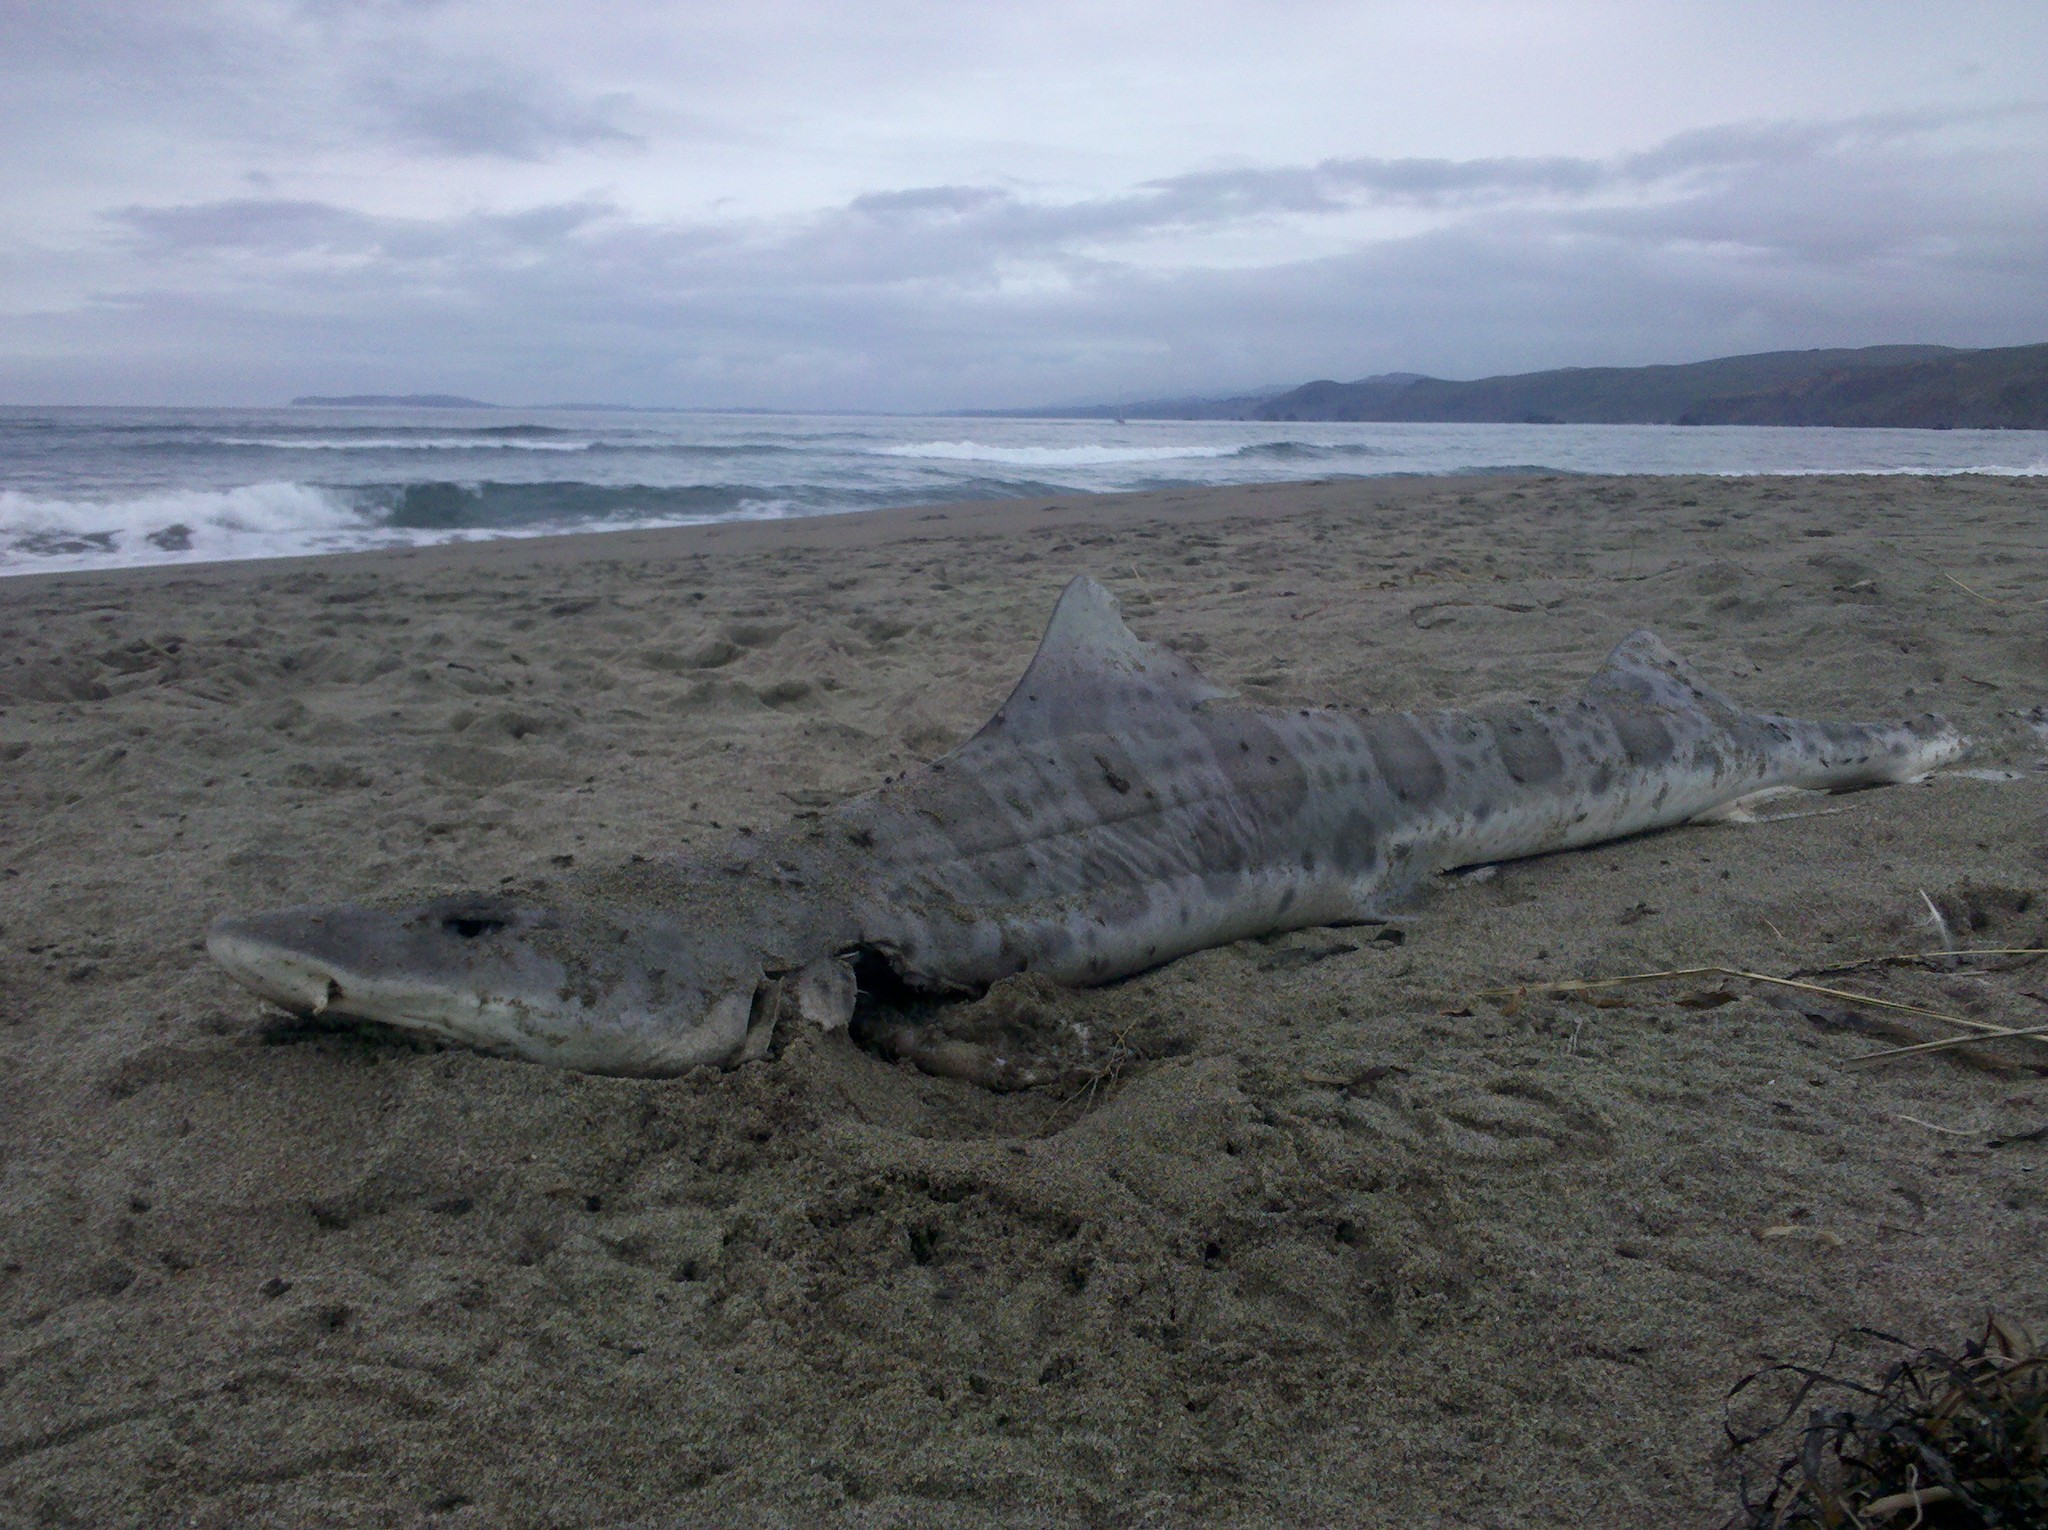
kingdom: Animalia
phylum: Chordata
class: Elasmobranchii
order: Carcharhiniformes
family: Triakidae
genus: Triakis
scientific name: Triakis semifasciata
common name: Leopard shark
